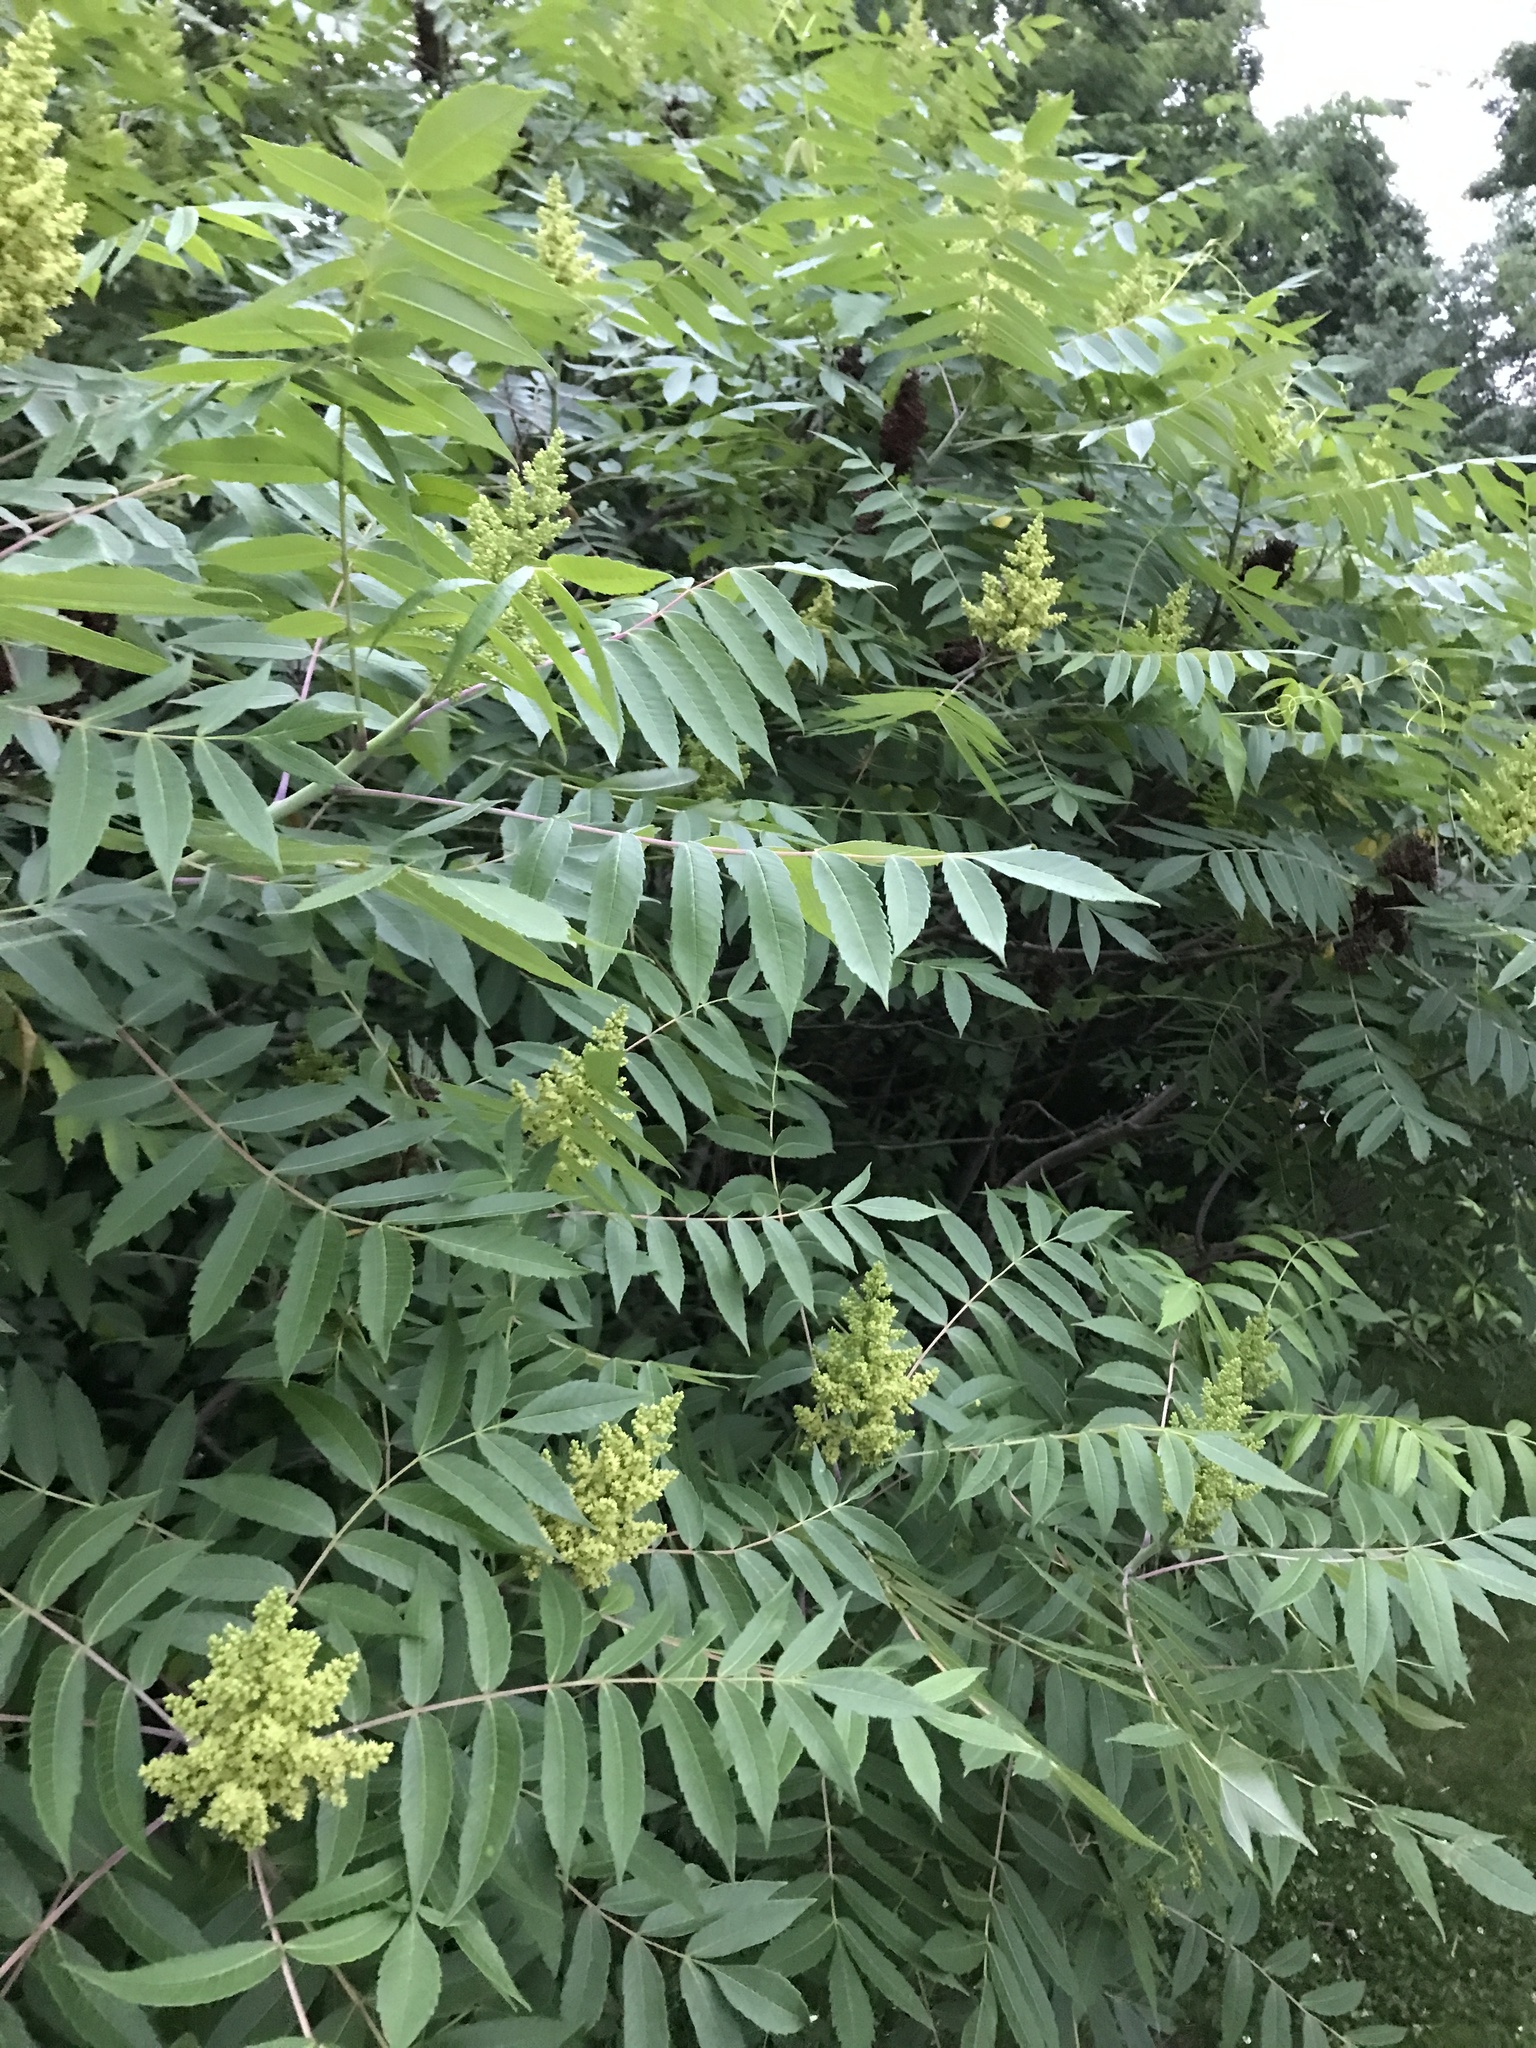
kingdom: Plantae
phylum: Tracheophyta
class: Magnoliopsida
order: Sapindales
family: Anacardiaceae
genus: Rhus
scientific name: Rhus glabra
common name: Scarlet sumac
